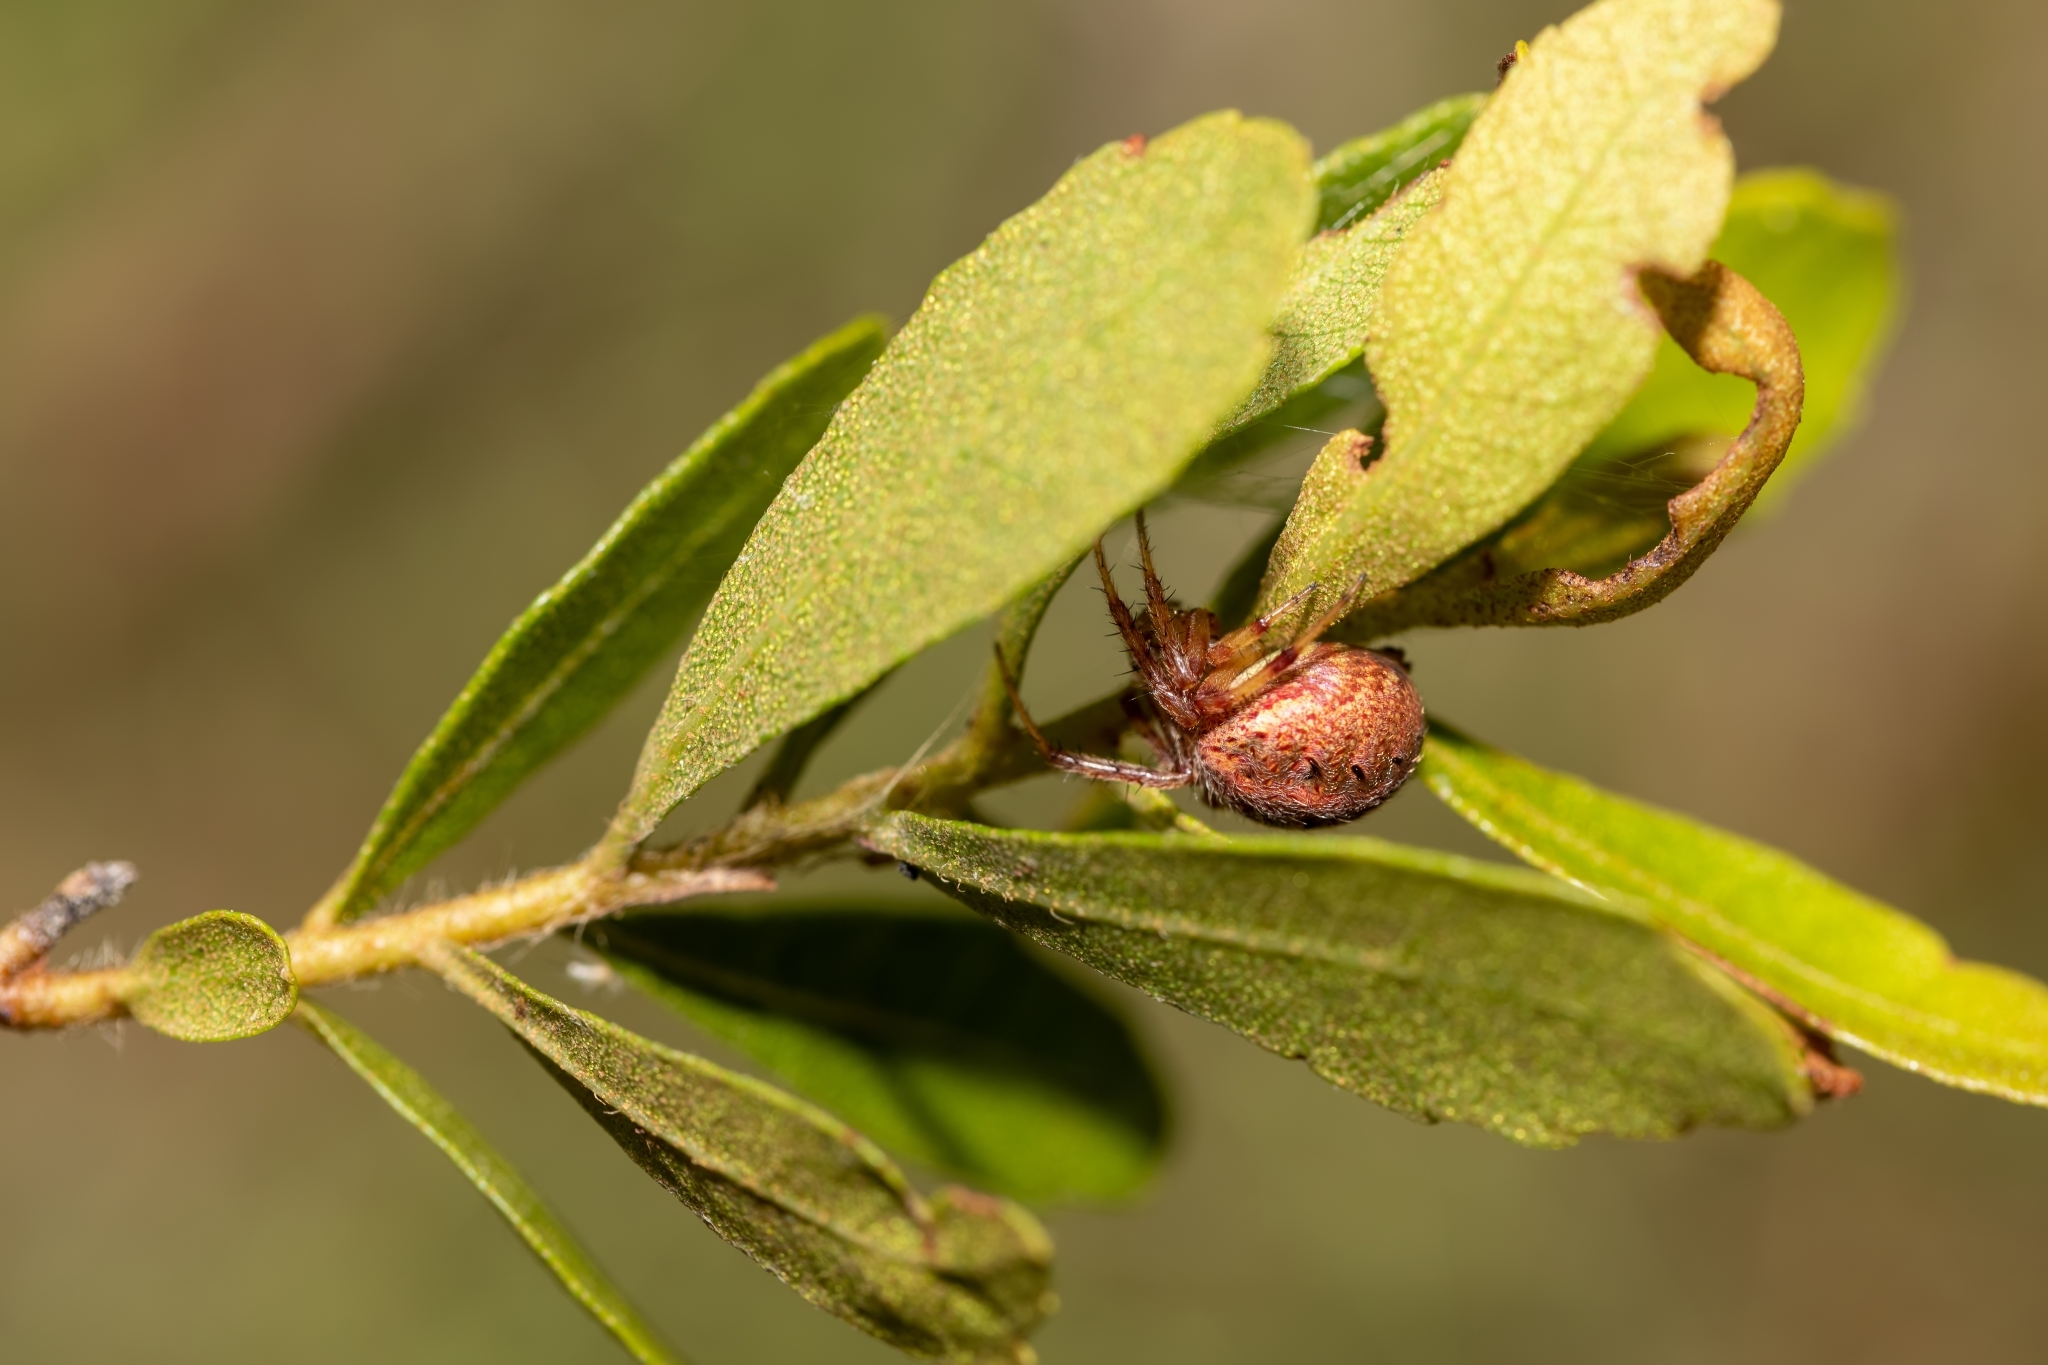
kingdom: Animalia
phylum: Arthropoda
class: Arachnida
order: Araneae
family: Araneidae
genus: Neoscona
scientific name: Neoscona arabesca
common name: Orb weavers
